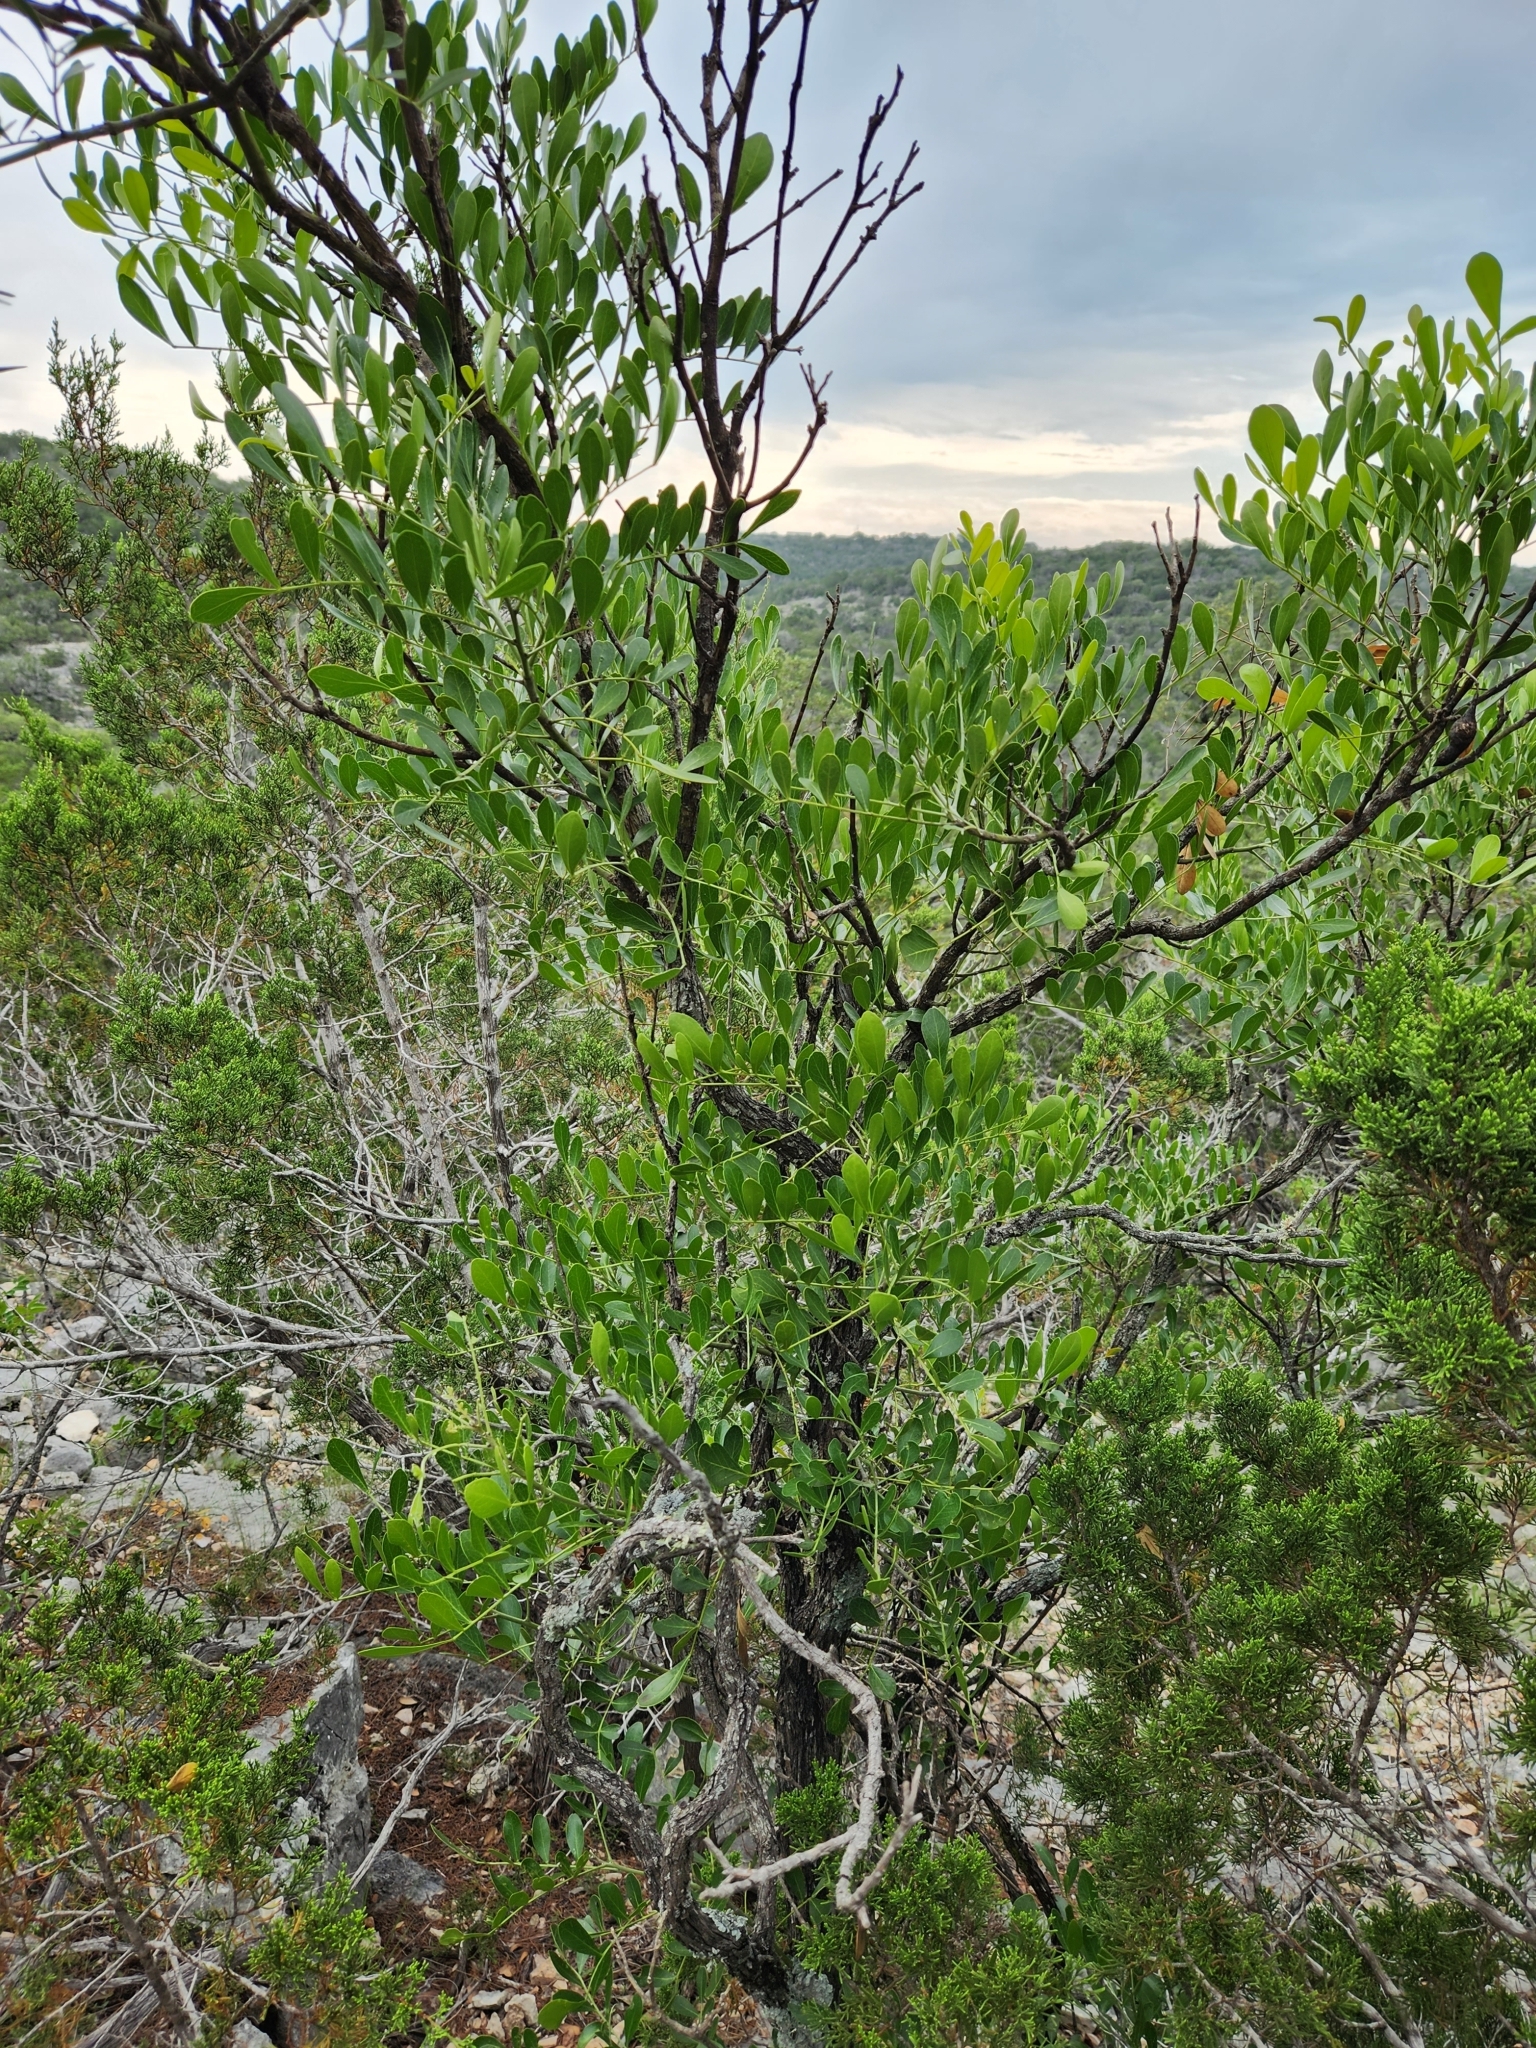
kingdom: Plantae
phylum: Tracheophyta
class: Magnoliopsida
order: Fabales
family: Fabaceae
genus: Dermatophyllum
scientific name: Dermatophyllum secundiflorum
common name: Texas-mountain-laurel
